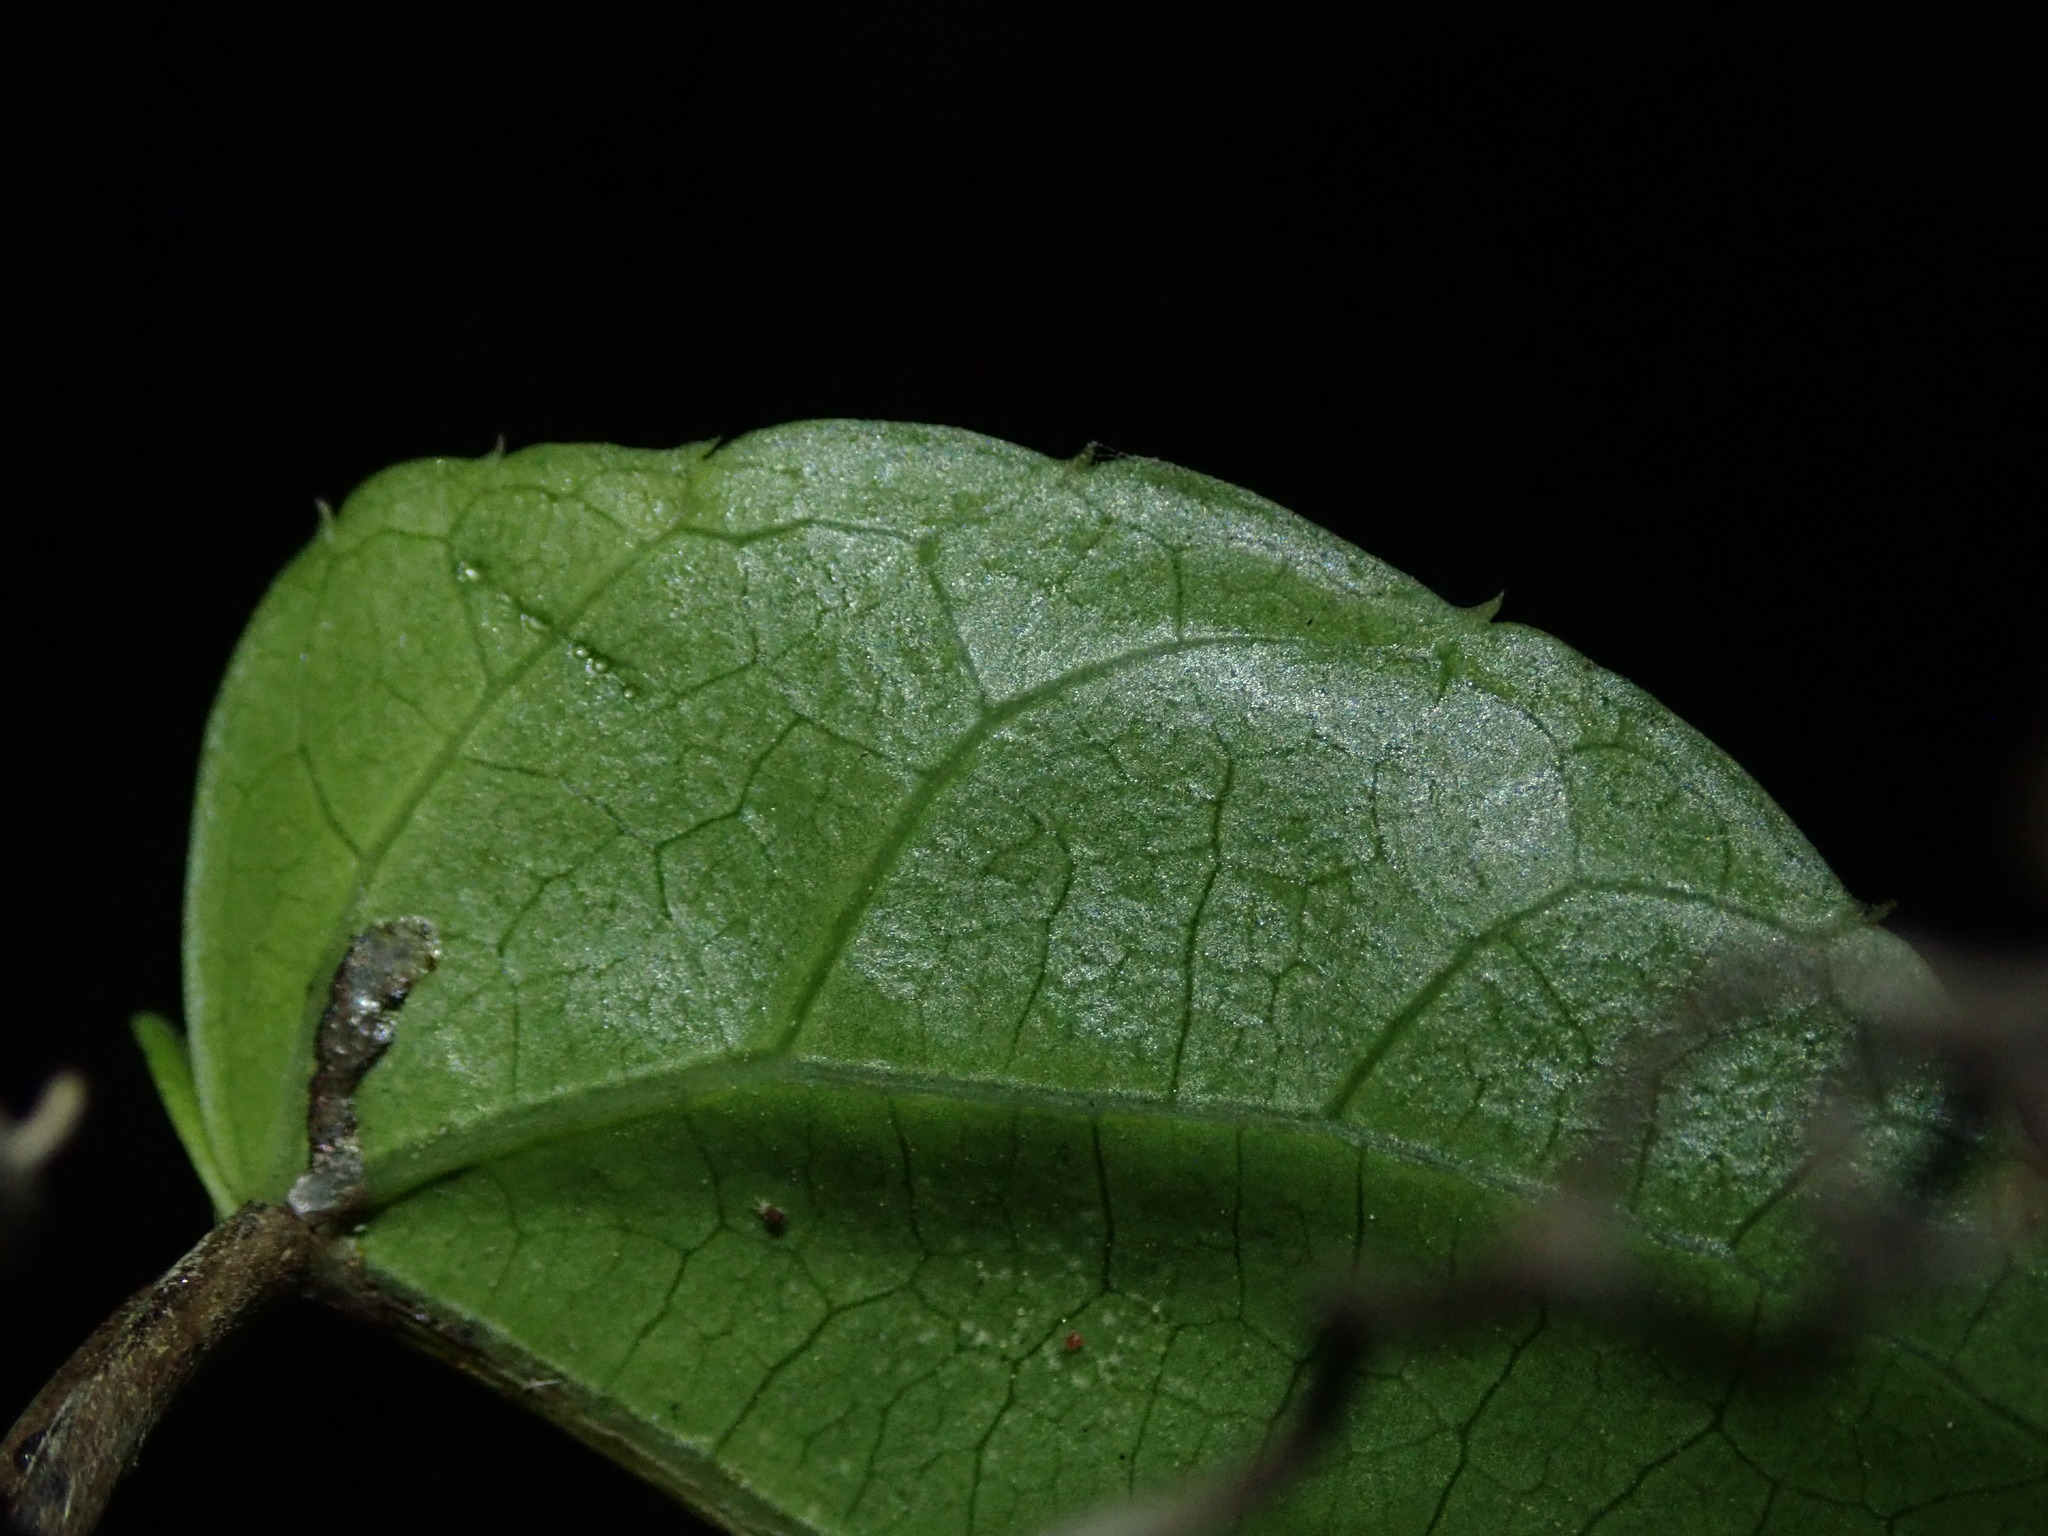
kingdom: Plantae
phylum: Tracheophyta
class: Magnoliopsida
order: Vitales
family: Vitaceae
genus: Cissus
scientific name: Cissus verticillata
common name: Princess vine
